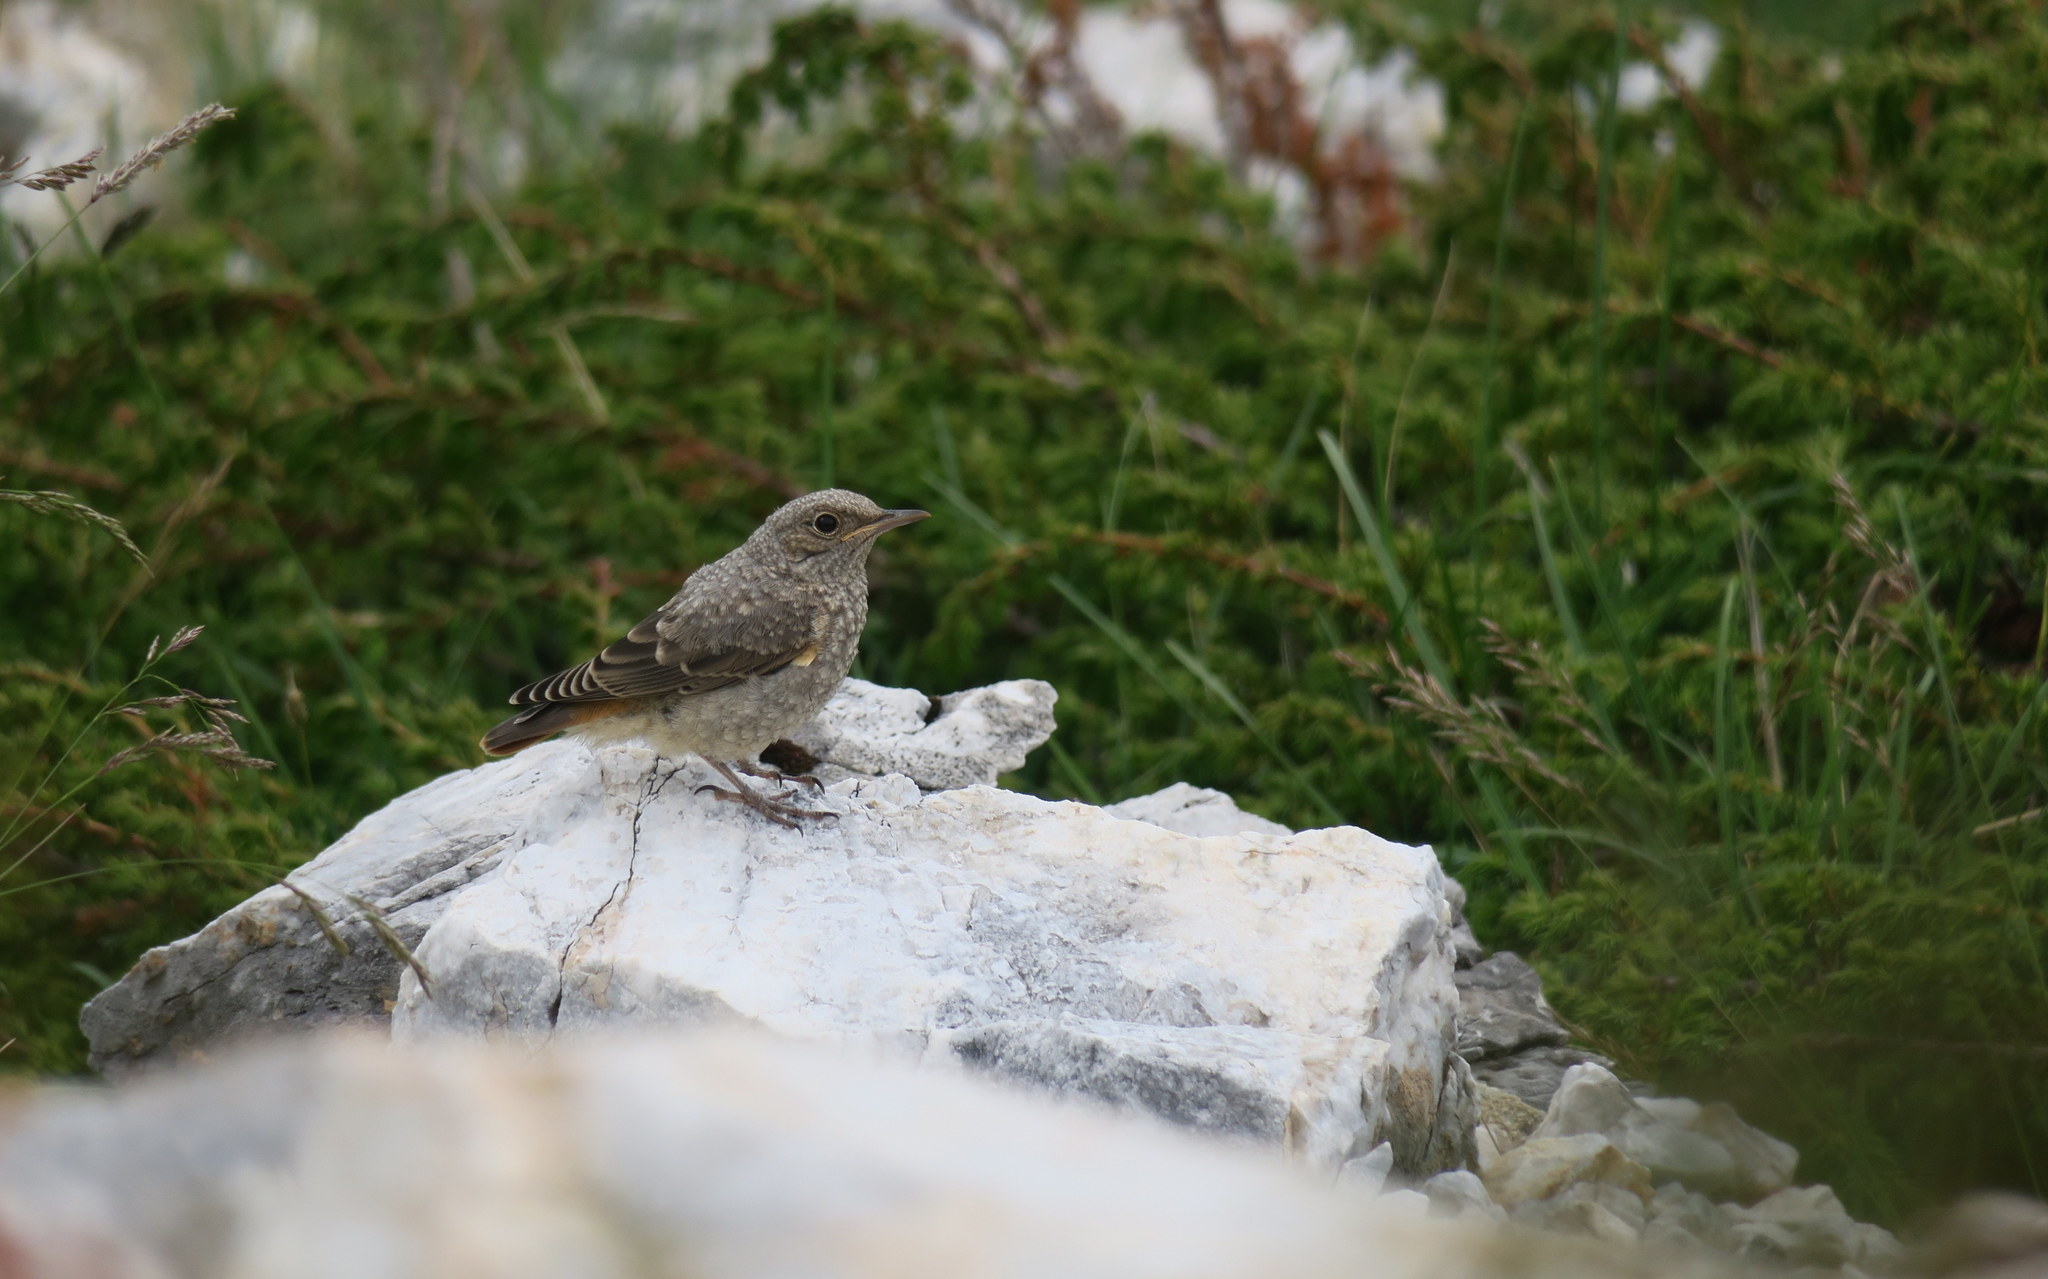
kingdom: Animalia
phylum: Chordata
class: Aves
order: Passeriformes
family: Muscicapidae
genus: Monticola
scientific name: Monticola saxatilis
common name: Rufous-tailed rock thrush
